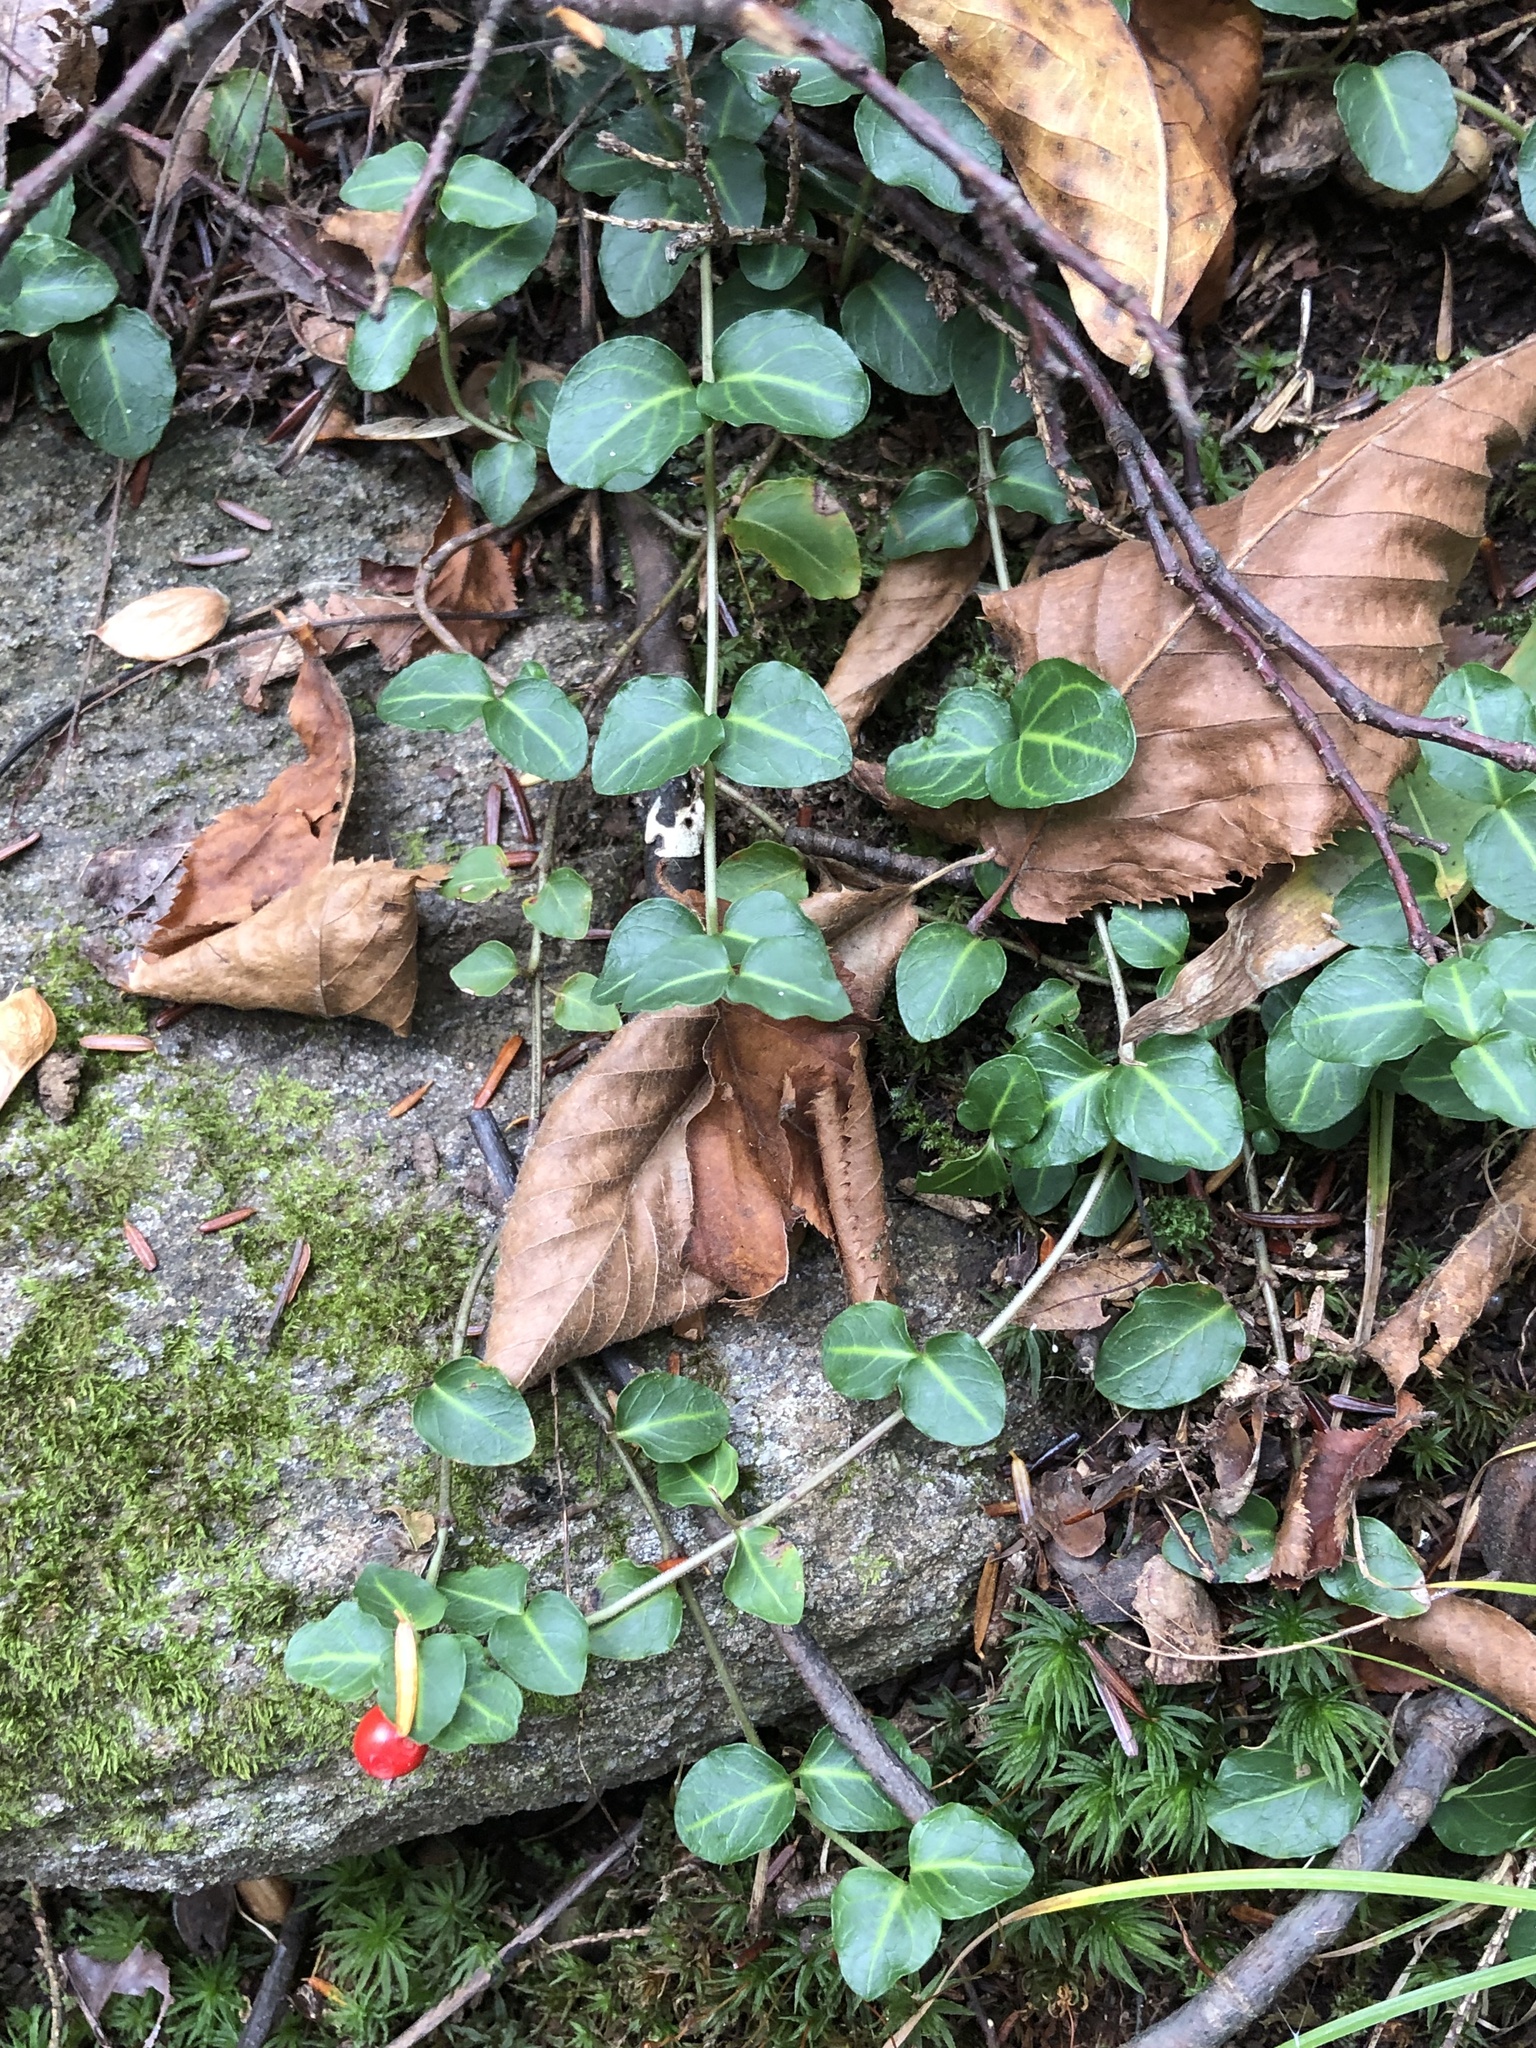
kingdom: Plantae
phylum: Tracheophyta
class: Magnoliopsida
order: Gentianales
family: Rubiaceae
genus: Mitchella
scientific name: Mitchella repens
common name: Partridge-berry
